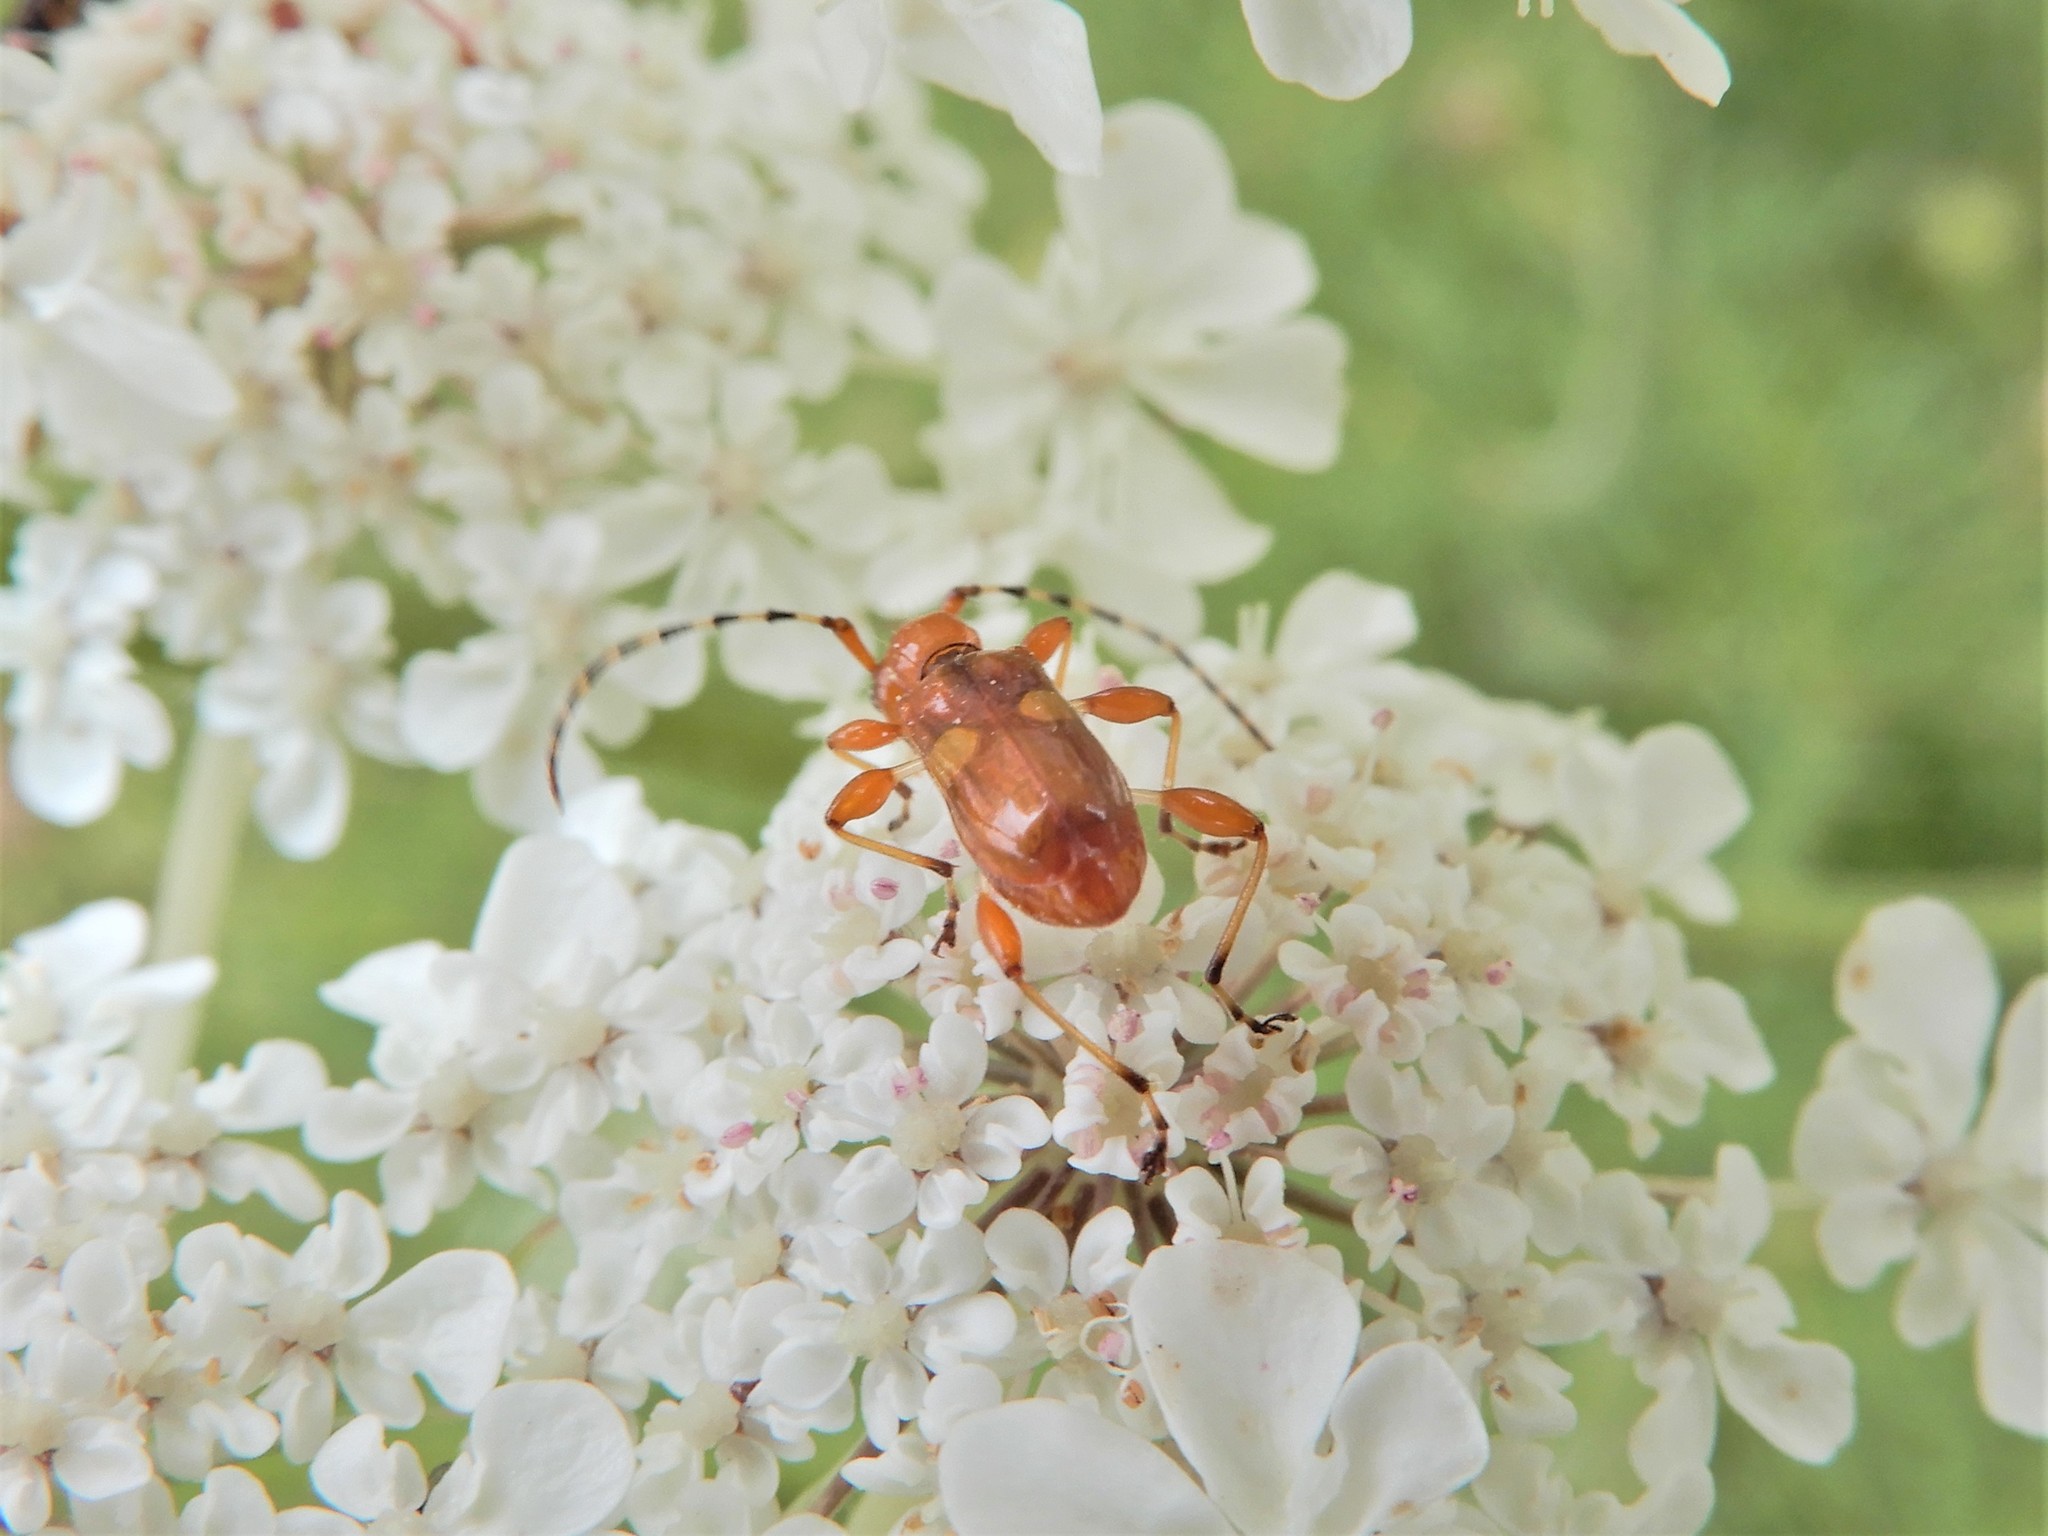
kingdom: Animalia
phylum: Arthropoda
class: Insecta
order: Coleoptera
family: Cerambycidae
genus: Zorion
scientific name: Zorion guttigerum
